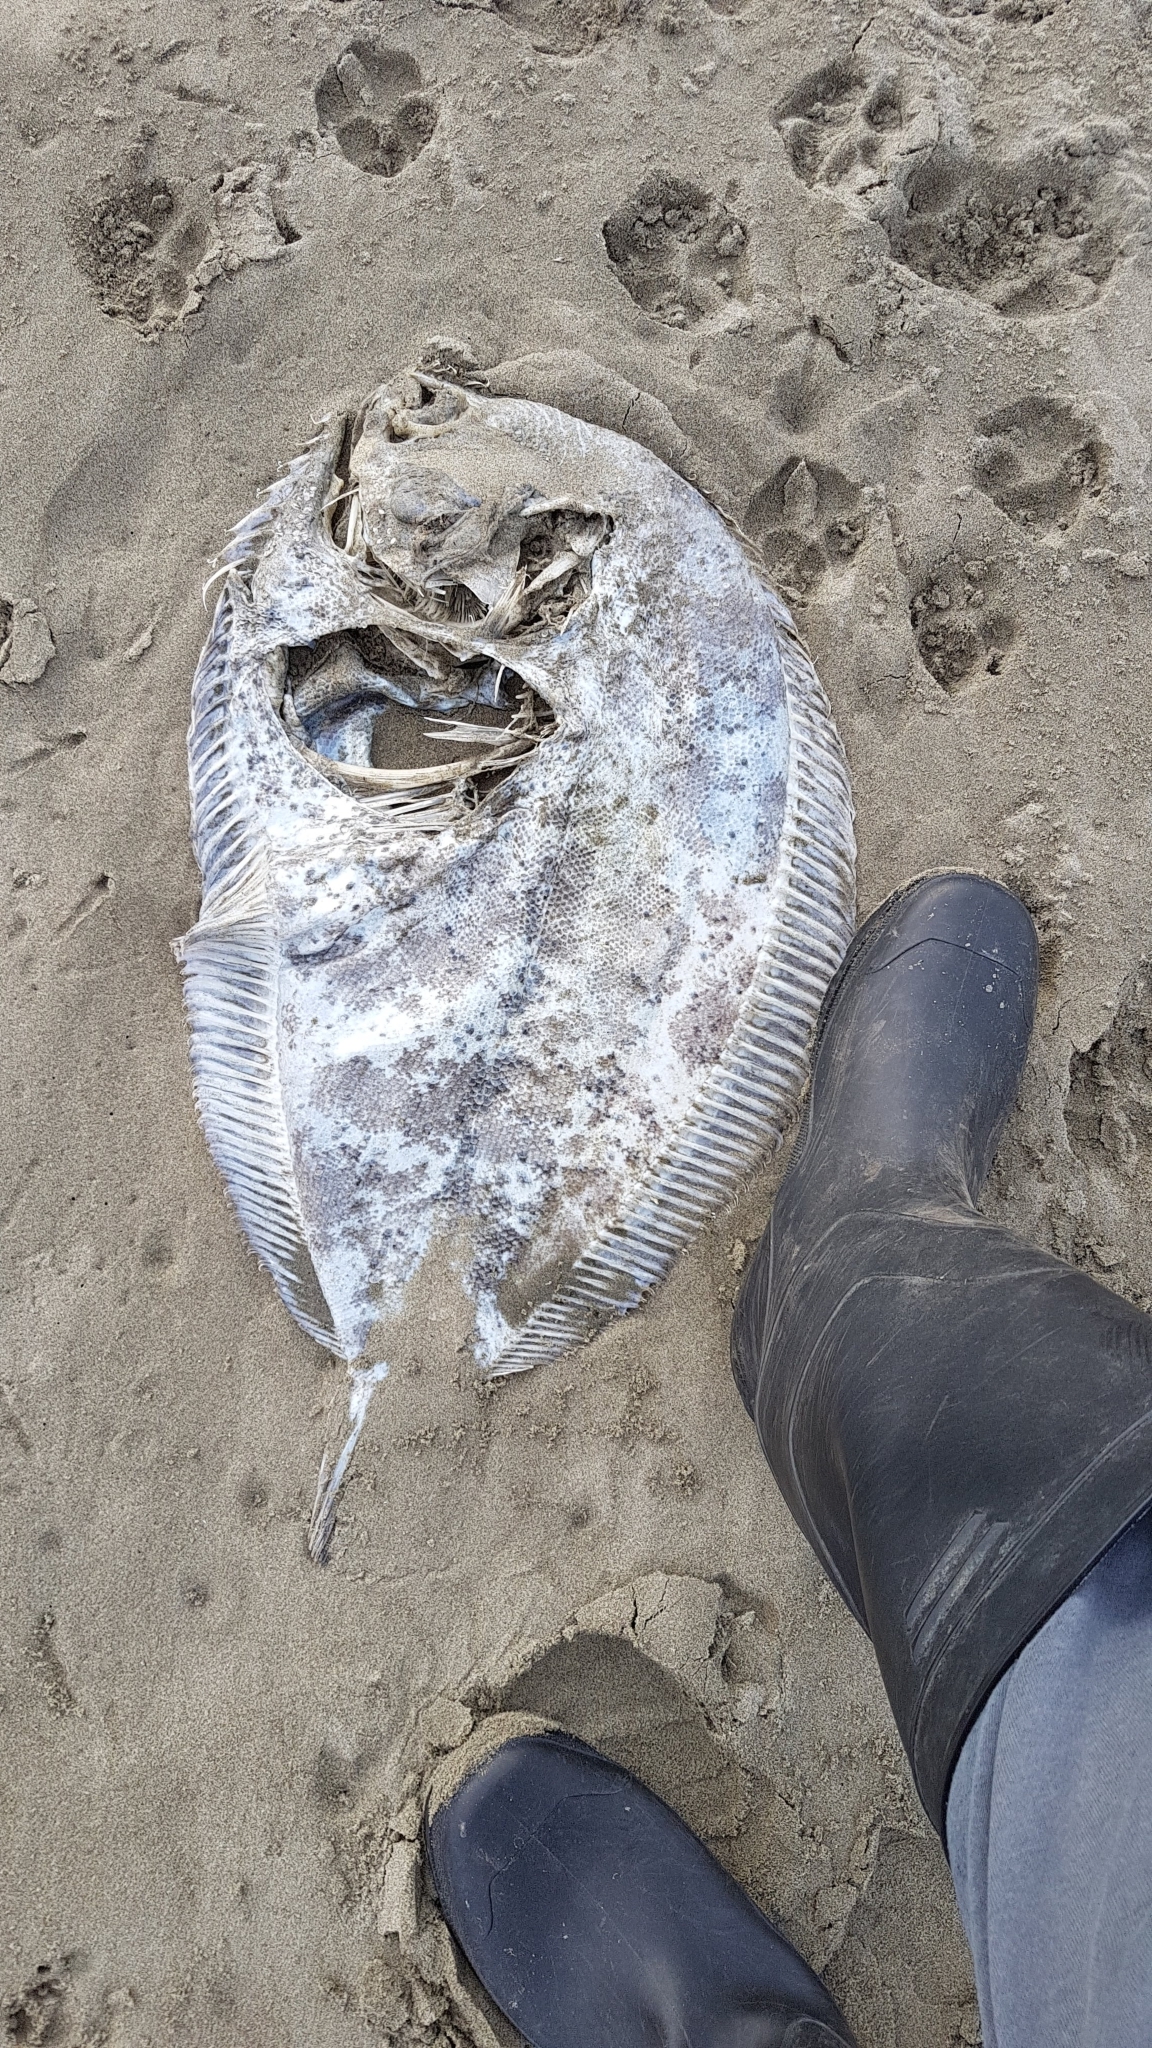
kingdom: Animalia
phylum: Chordata
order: Pleuronectiformes
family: Pleuronectidae
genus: Colistium
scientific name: Colistium nudipinnis
